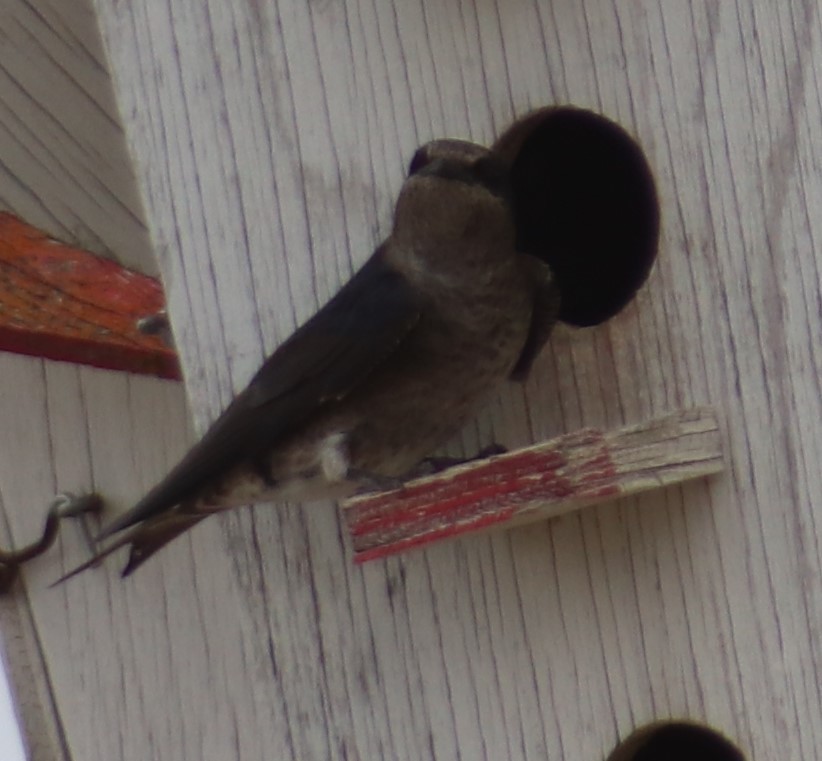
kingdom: Animalia
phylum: Chordata
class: Aves
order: Passeriformes
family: Hirundinidae
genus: Progne
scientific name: Progne subis
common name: Purple martin
